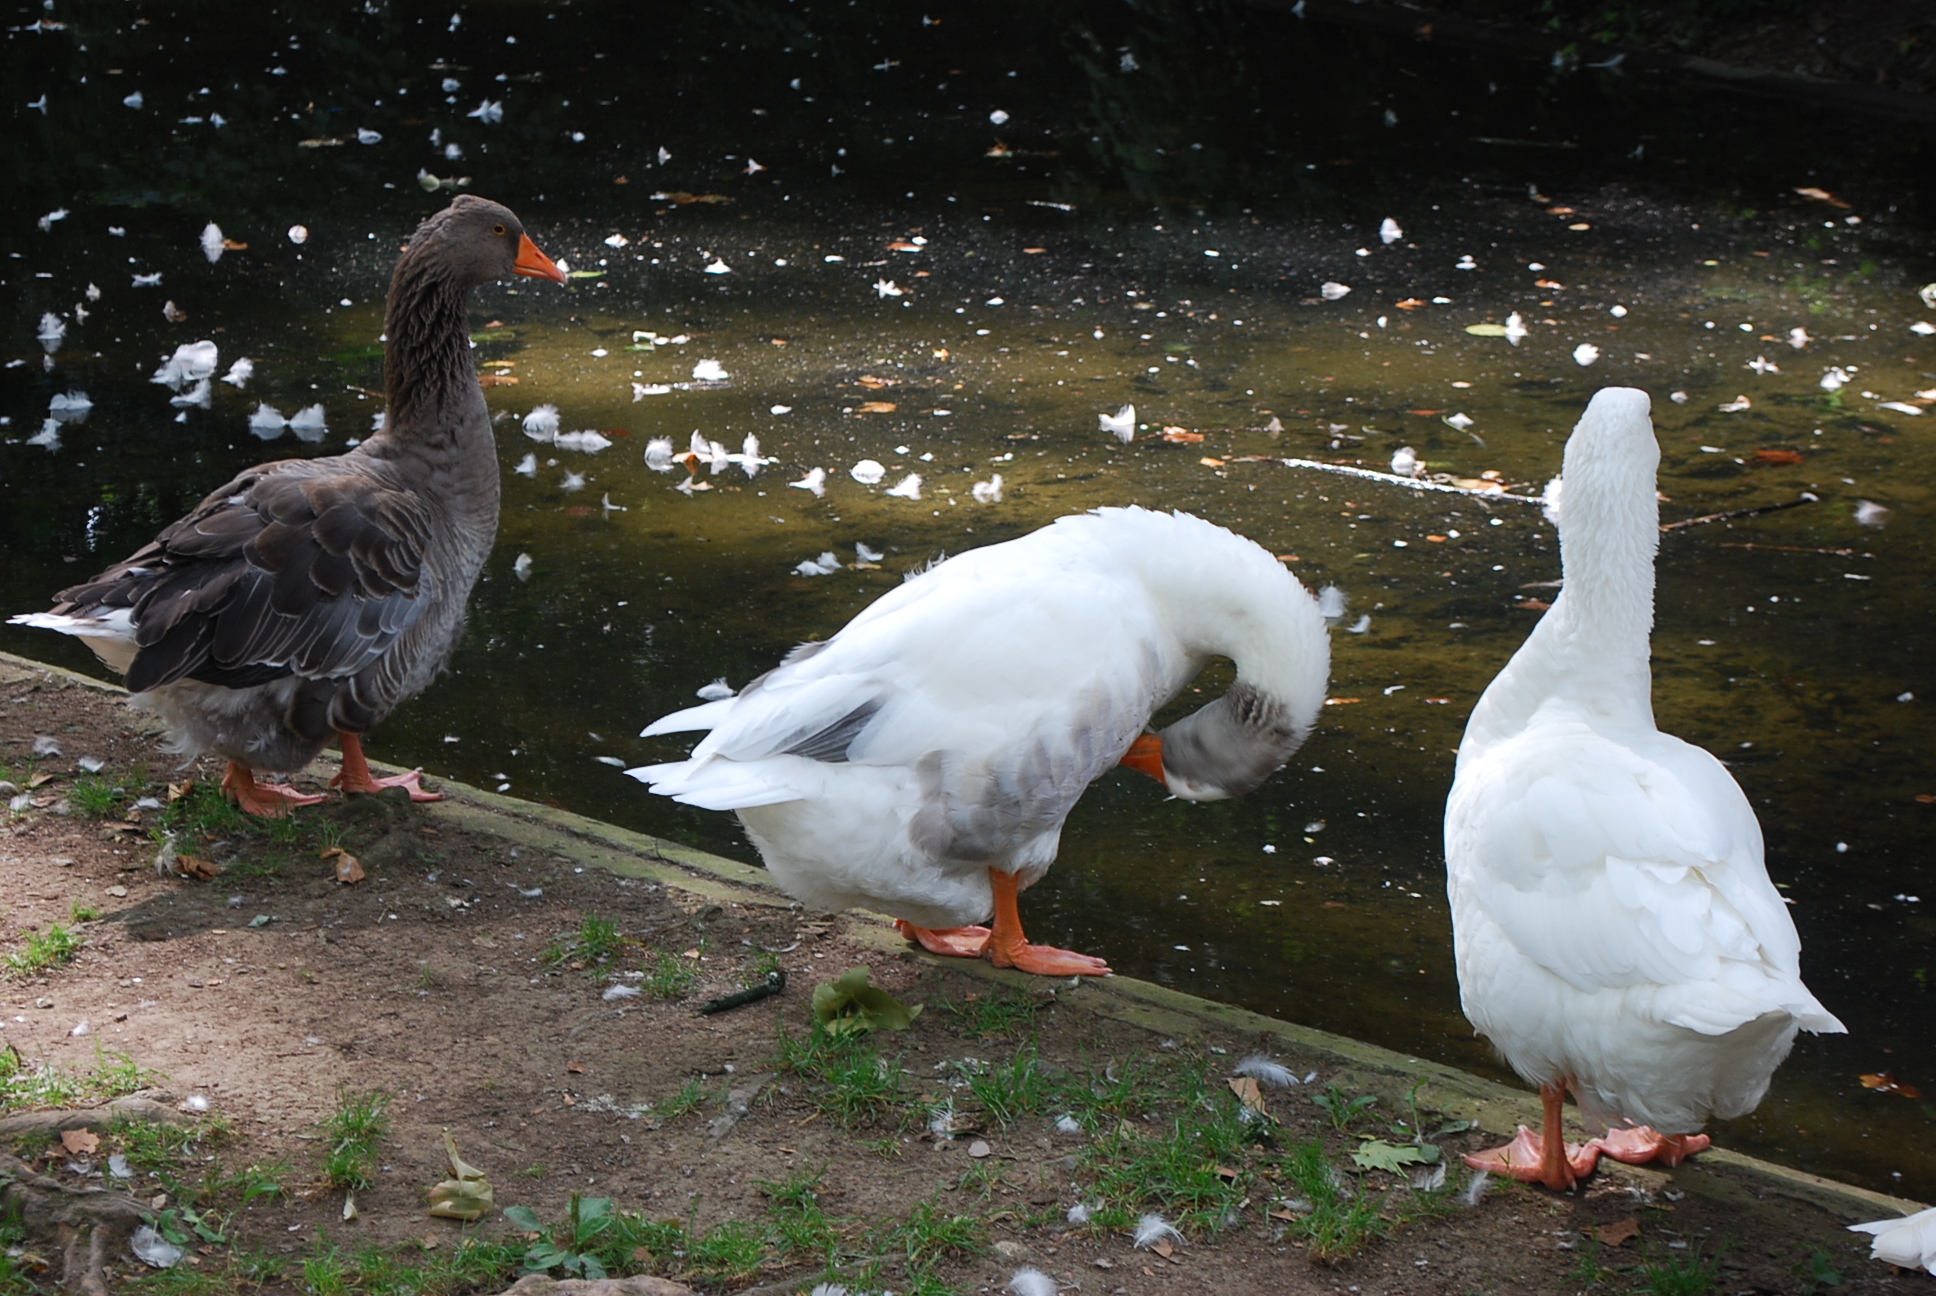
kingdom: Animalia
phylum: Chordata
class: Aves
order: Anseriformes
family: Anatidae
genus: Anser
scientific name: Anser anser
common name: Greylag goose
